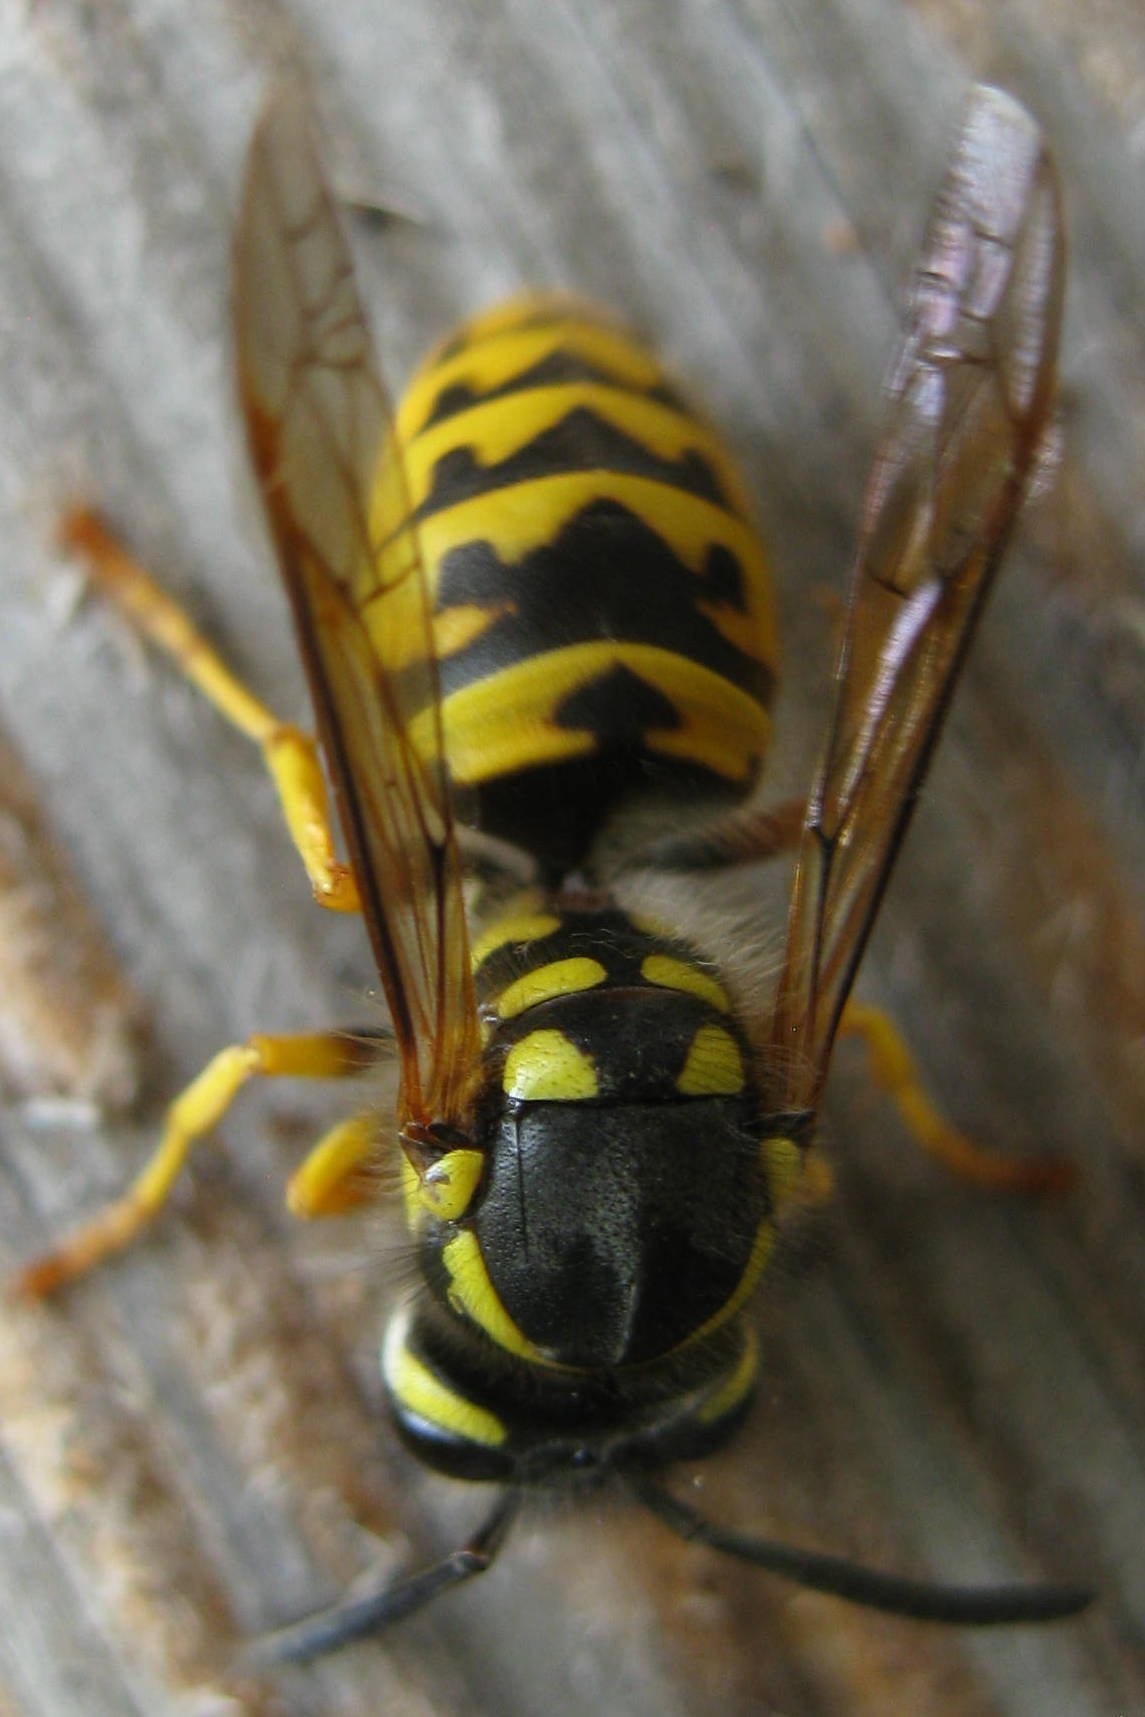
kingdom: Animalia
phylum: Arthropoda
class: Insecta
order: Hymenoptera
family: Vespidae
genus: Vespula
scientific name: Vespula germanica
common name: German wasp
